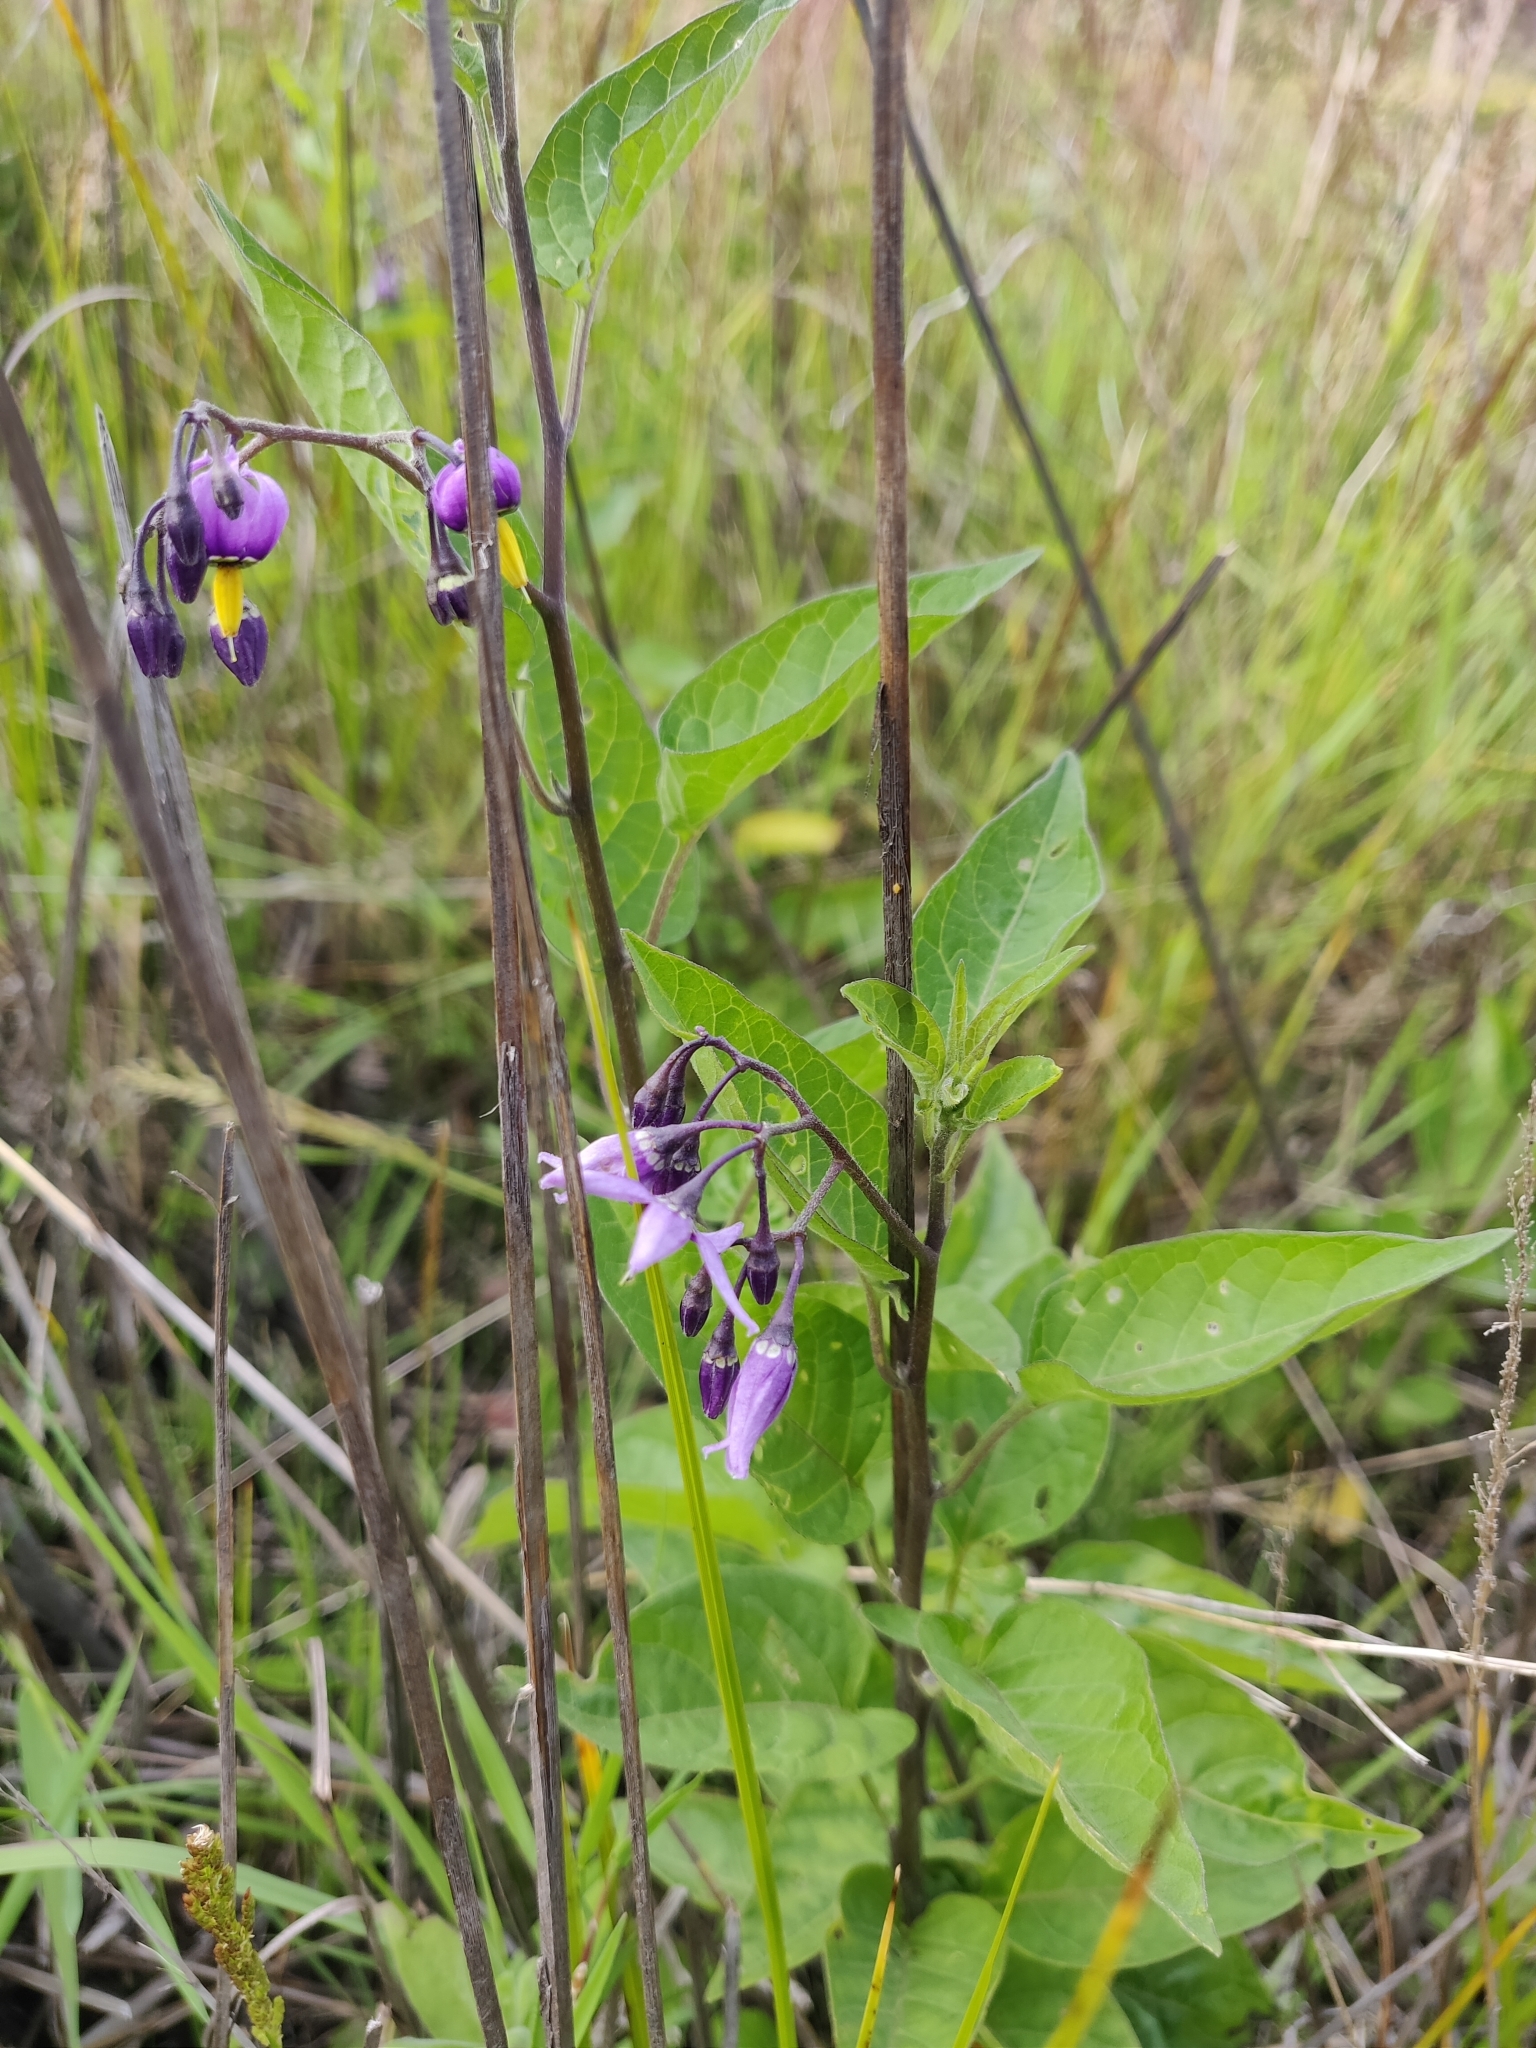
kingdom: Plantae
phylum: Tracheophyta
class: Magnoliopsida
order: Solanales
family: Solanaceae
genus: Solanum
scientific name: Solanum dulcamara
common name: Climbing nightshade
